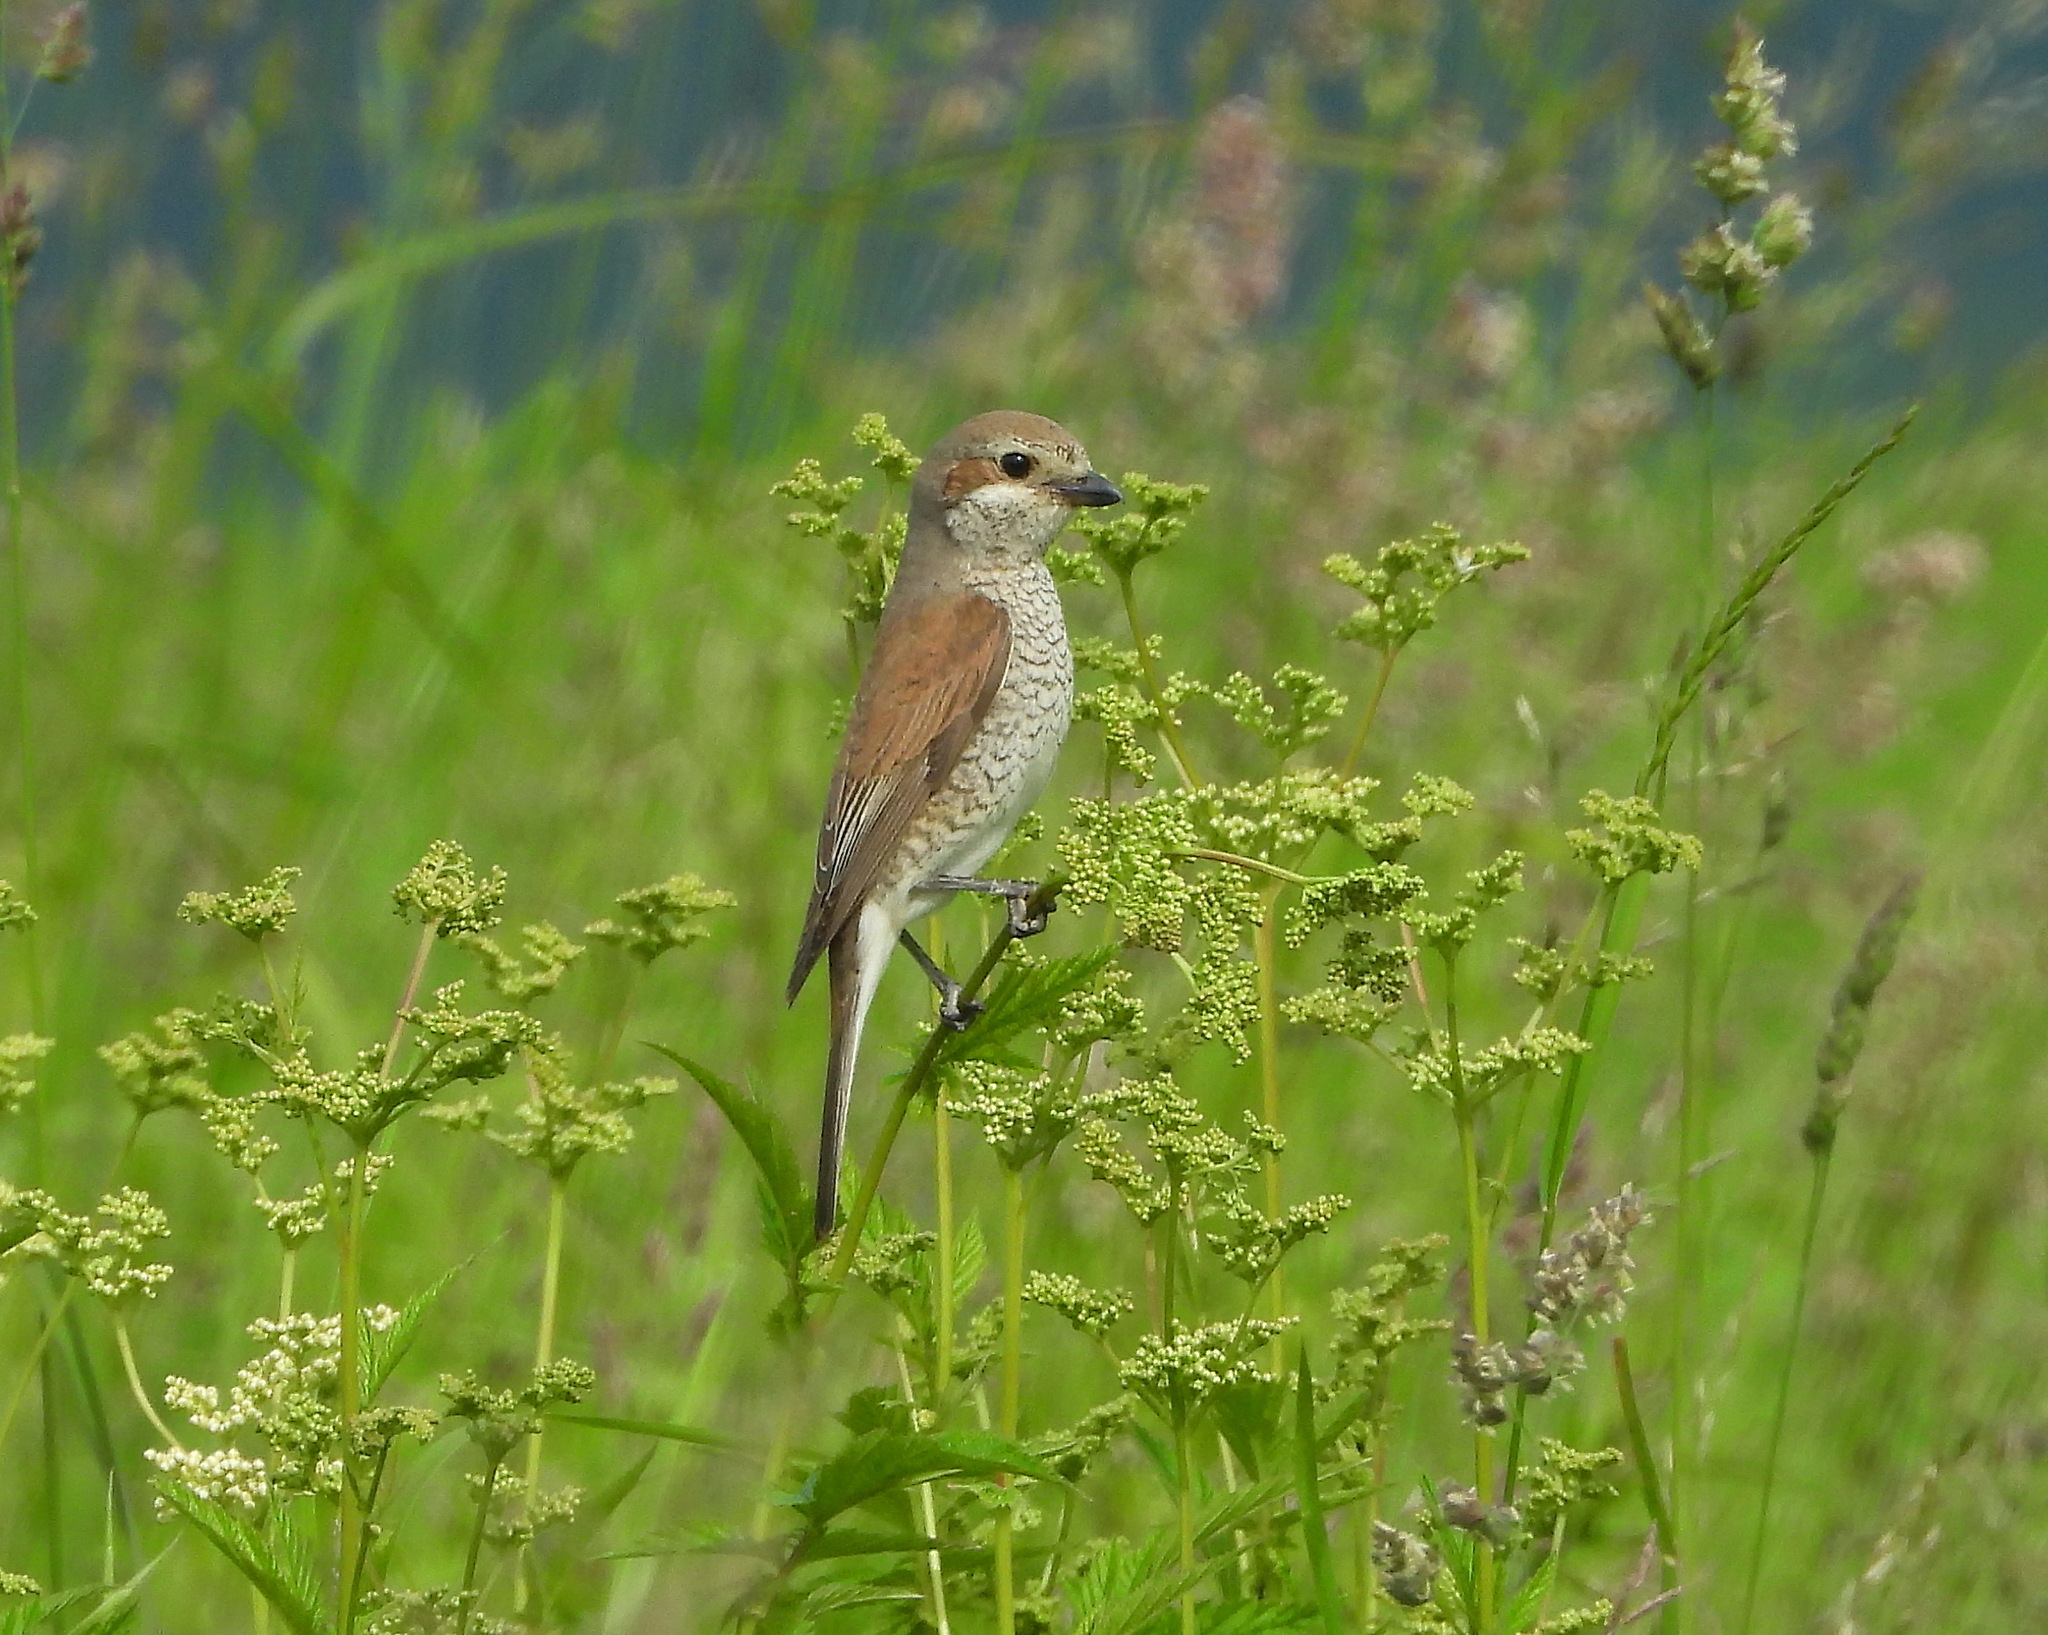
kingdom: Animalia
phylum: Chordata
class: Aves
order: Passeriformes
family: Laniidae
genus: Lanius
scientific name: Lanius collurio
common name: Red-backed shrike
